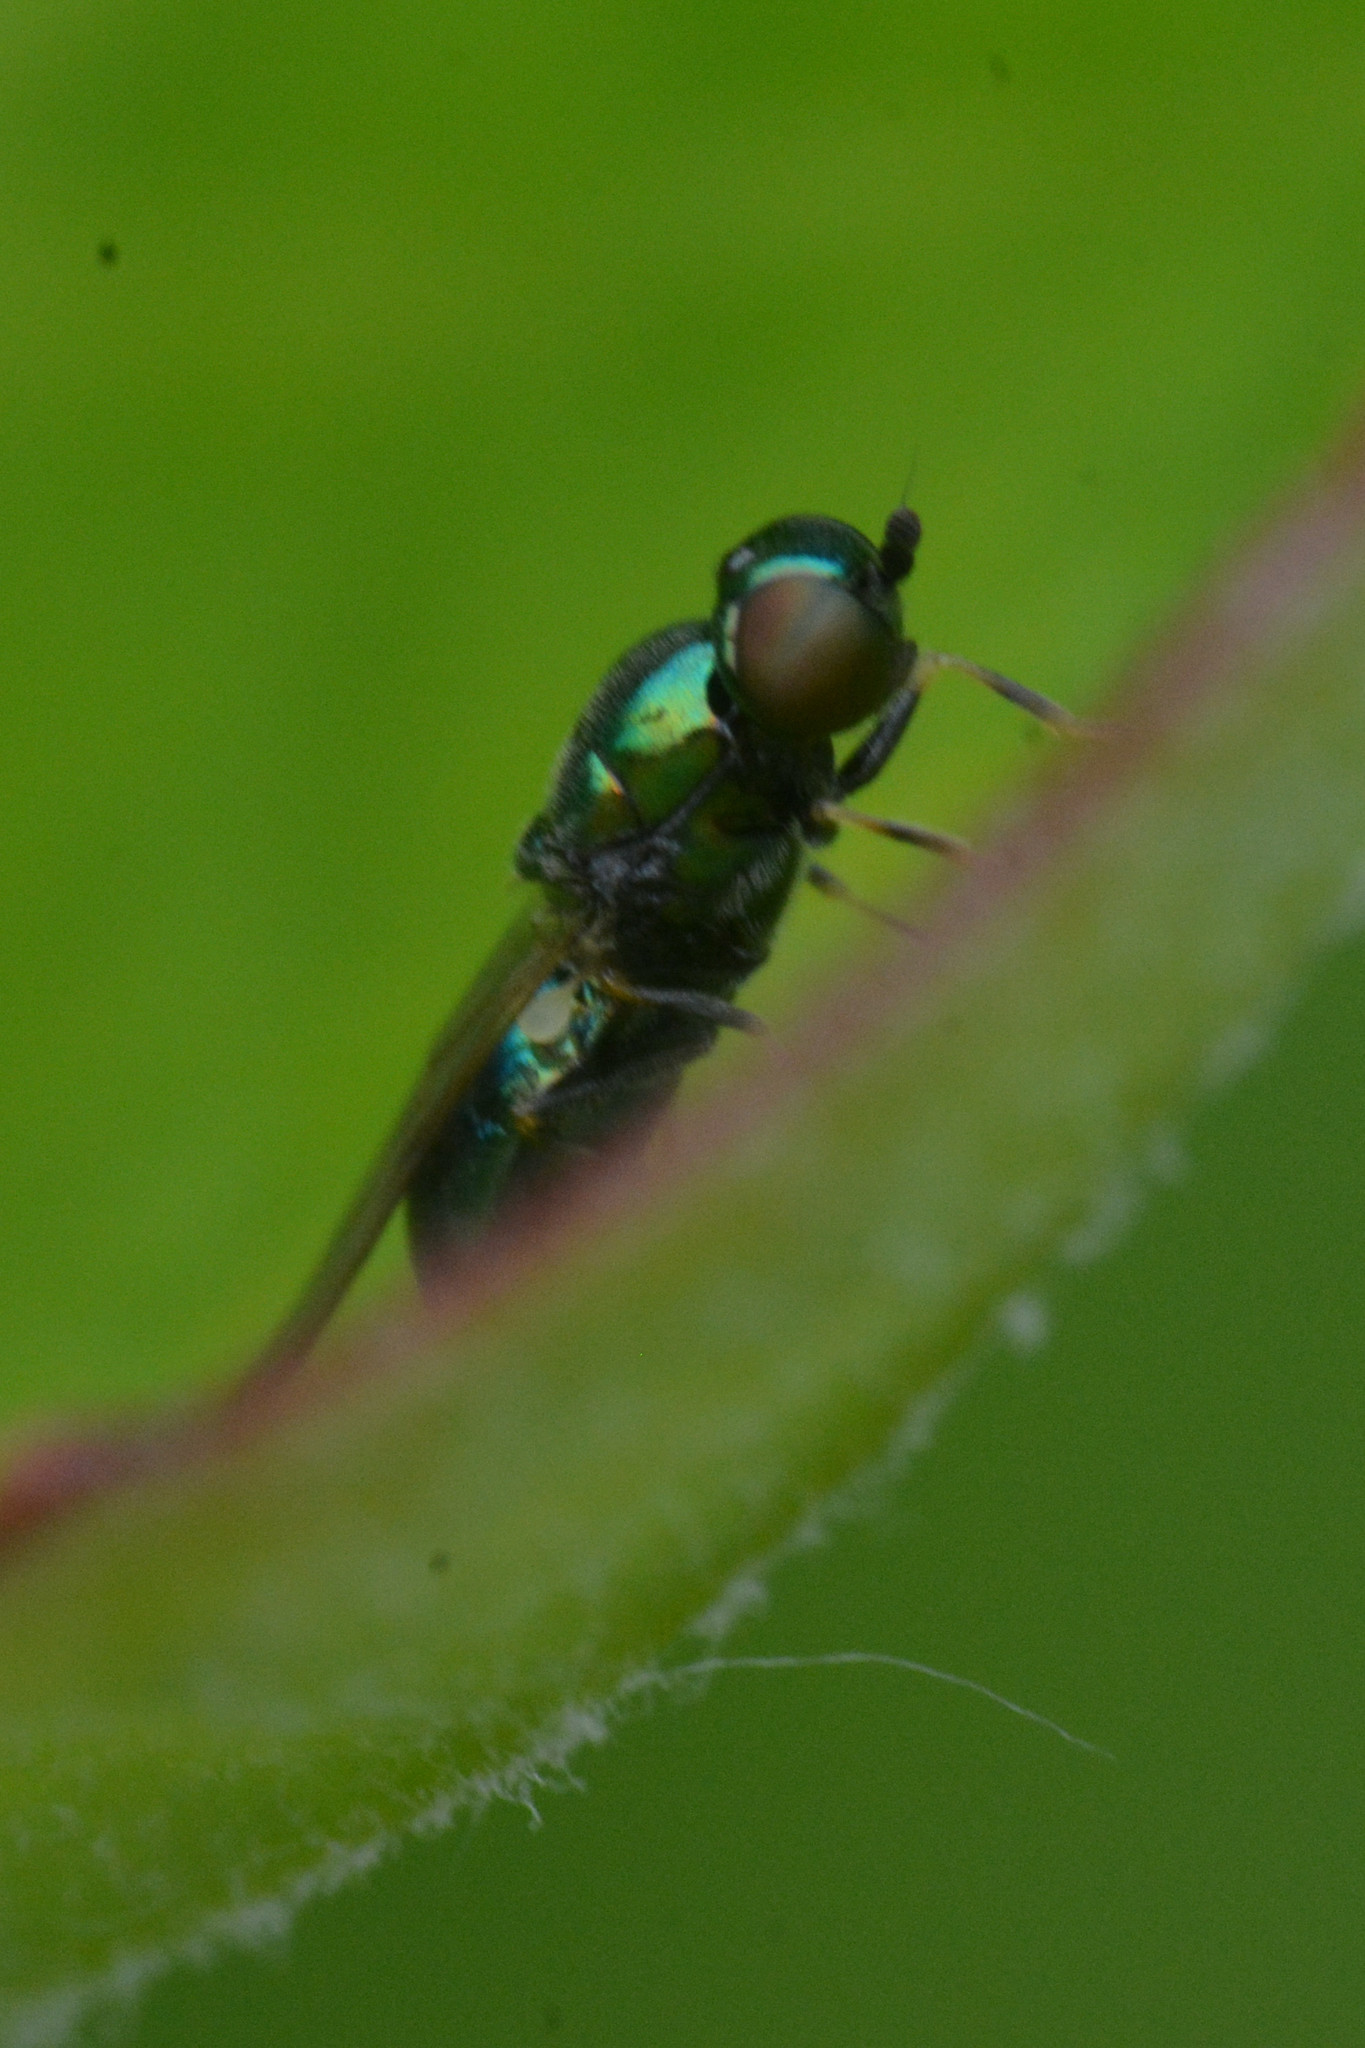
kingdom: Animalia
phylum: Arthropoda
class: Insecta
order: Diptera
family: Stratiomyidae
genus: Microchrysa
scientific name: Microchrysa polita
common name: Black-horned gem
